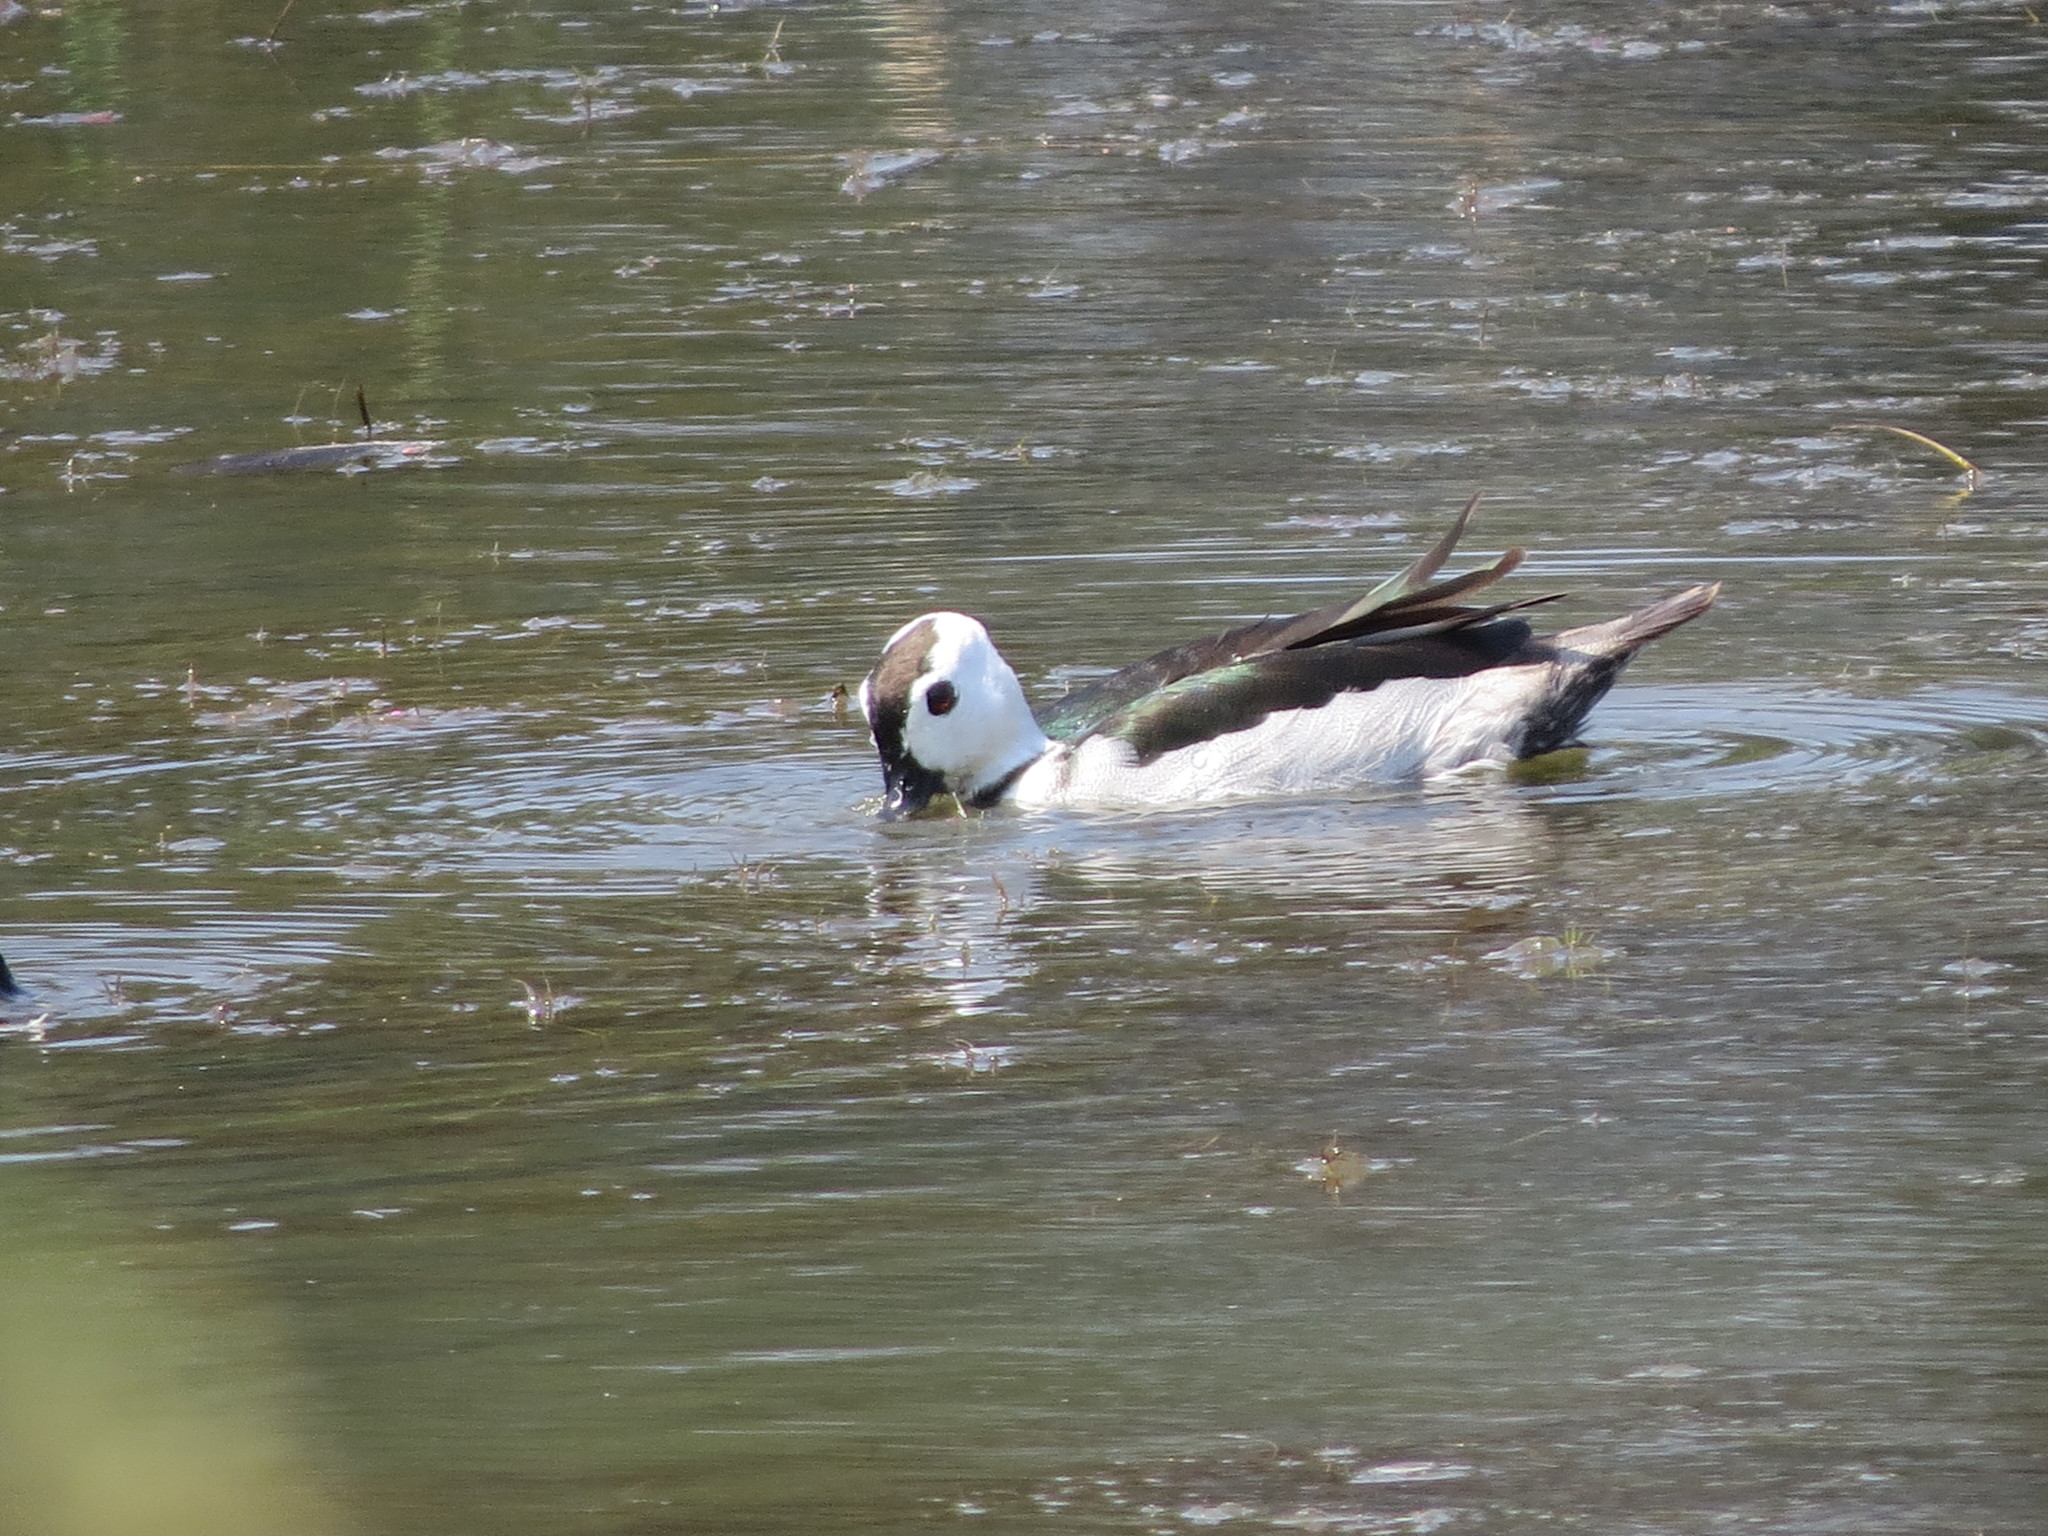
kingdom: Animalia
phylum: Chordata
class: Aves
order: Anseriformes
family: Anatidae
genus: Nettapus
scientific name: Nettapus coromandelianus
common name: Cotton pygmy-goose
